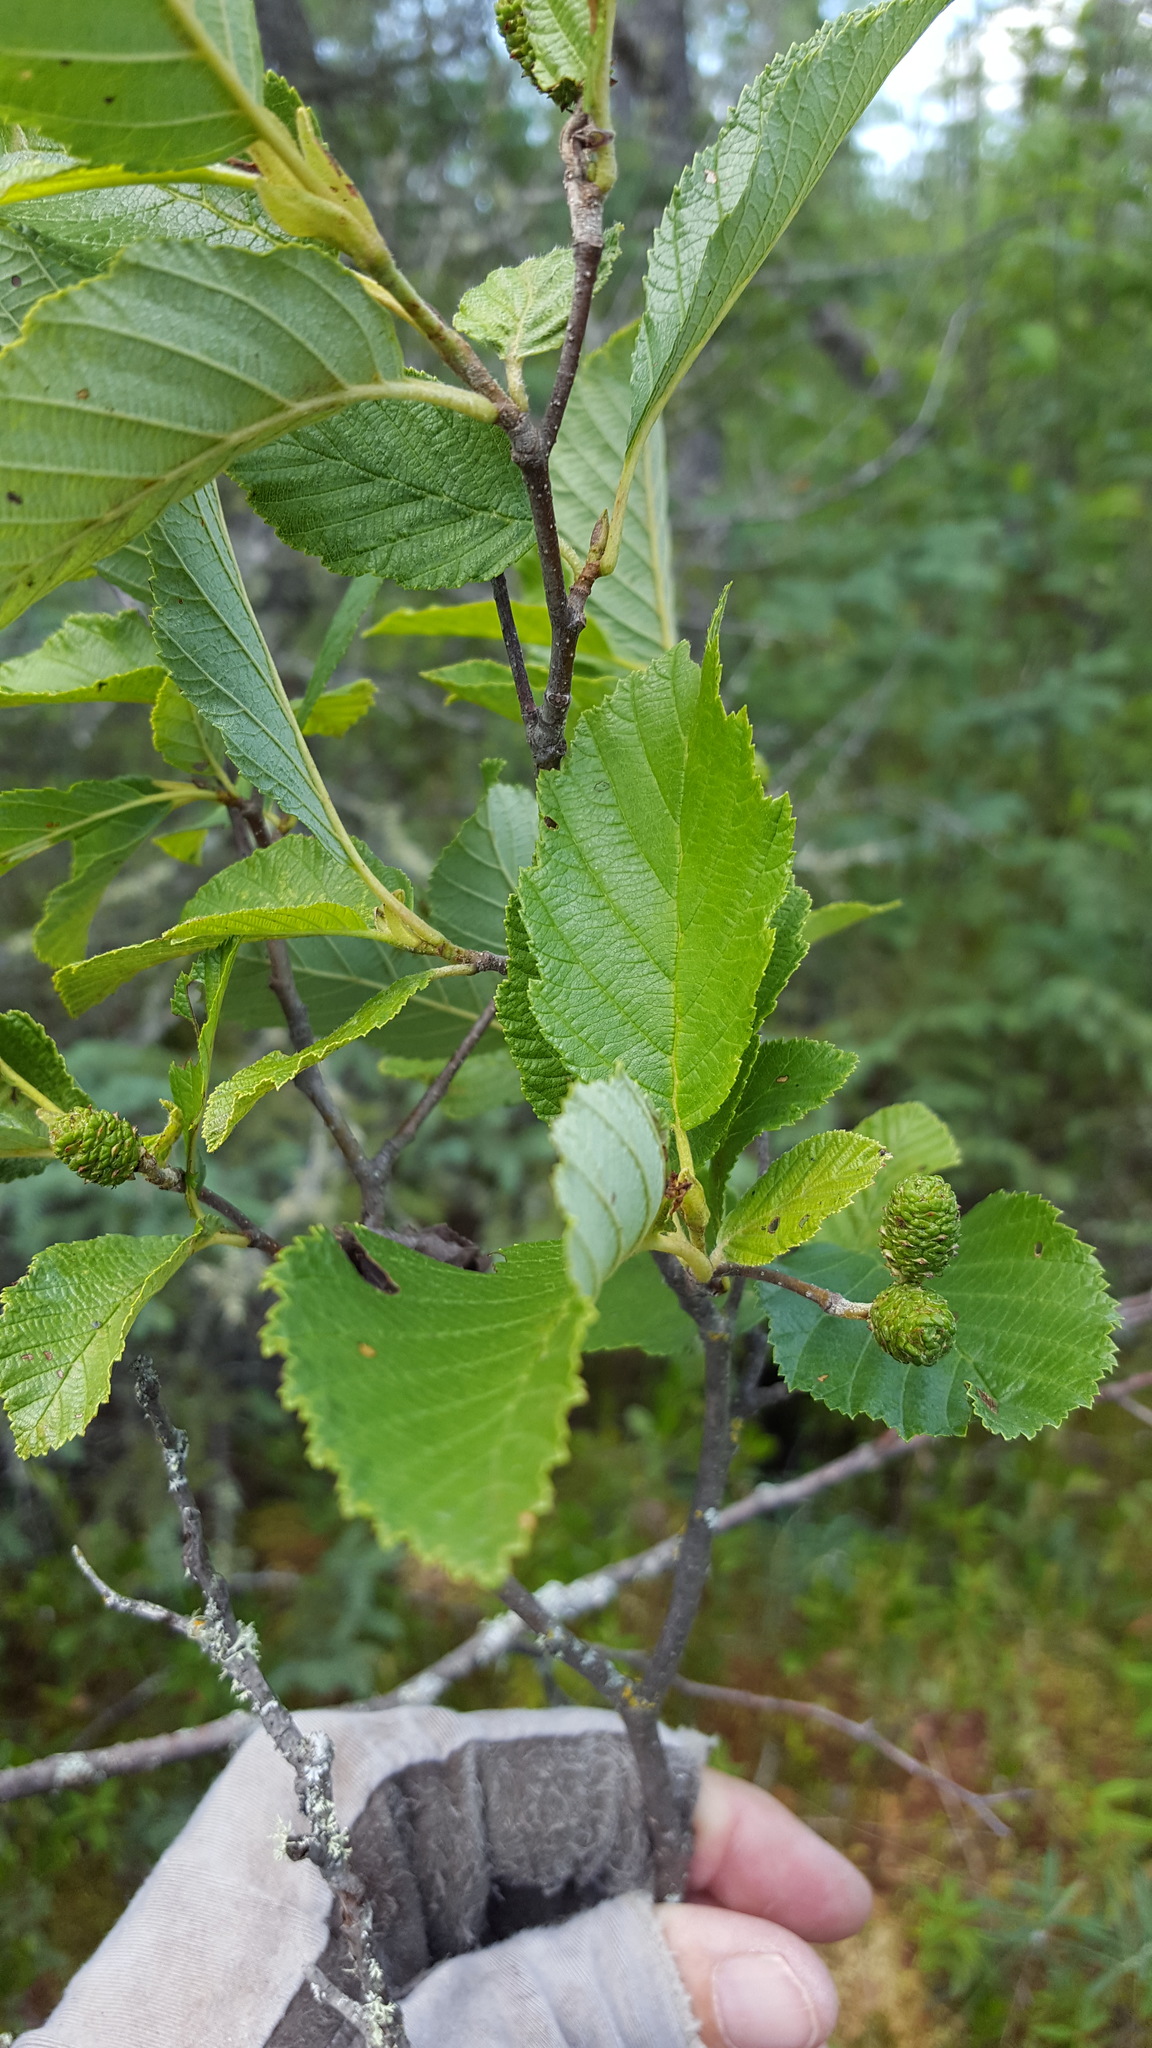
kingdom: Plantae
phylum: Tracheophyta
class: Magnoliopsida
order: Fagales
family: Betulaceae
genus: Alnus
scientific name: Alnus incana
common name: Grey alder
